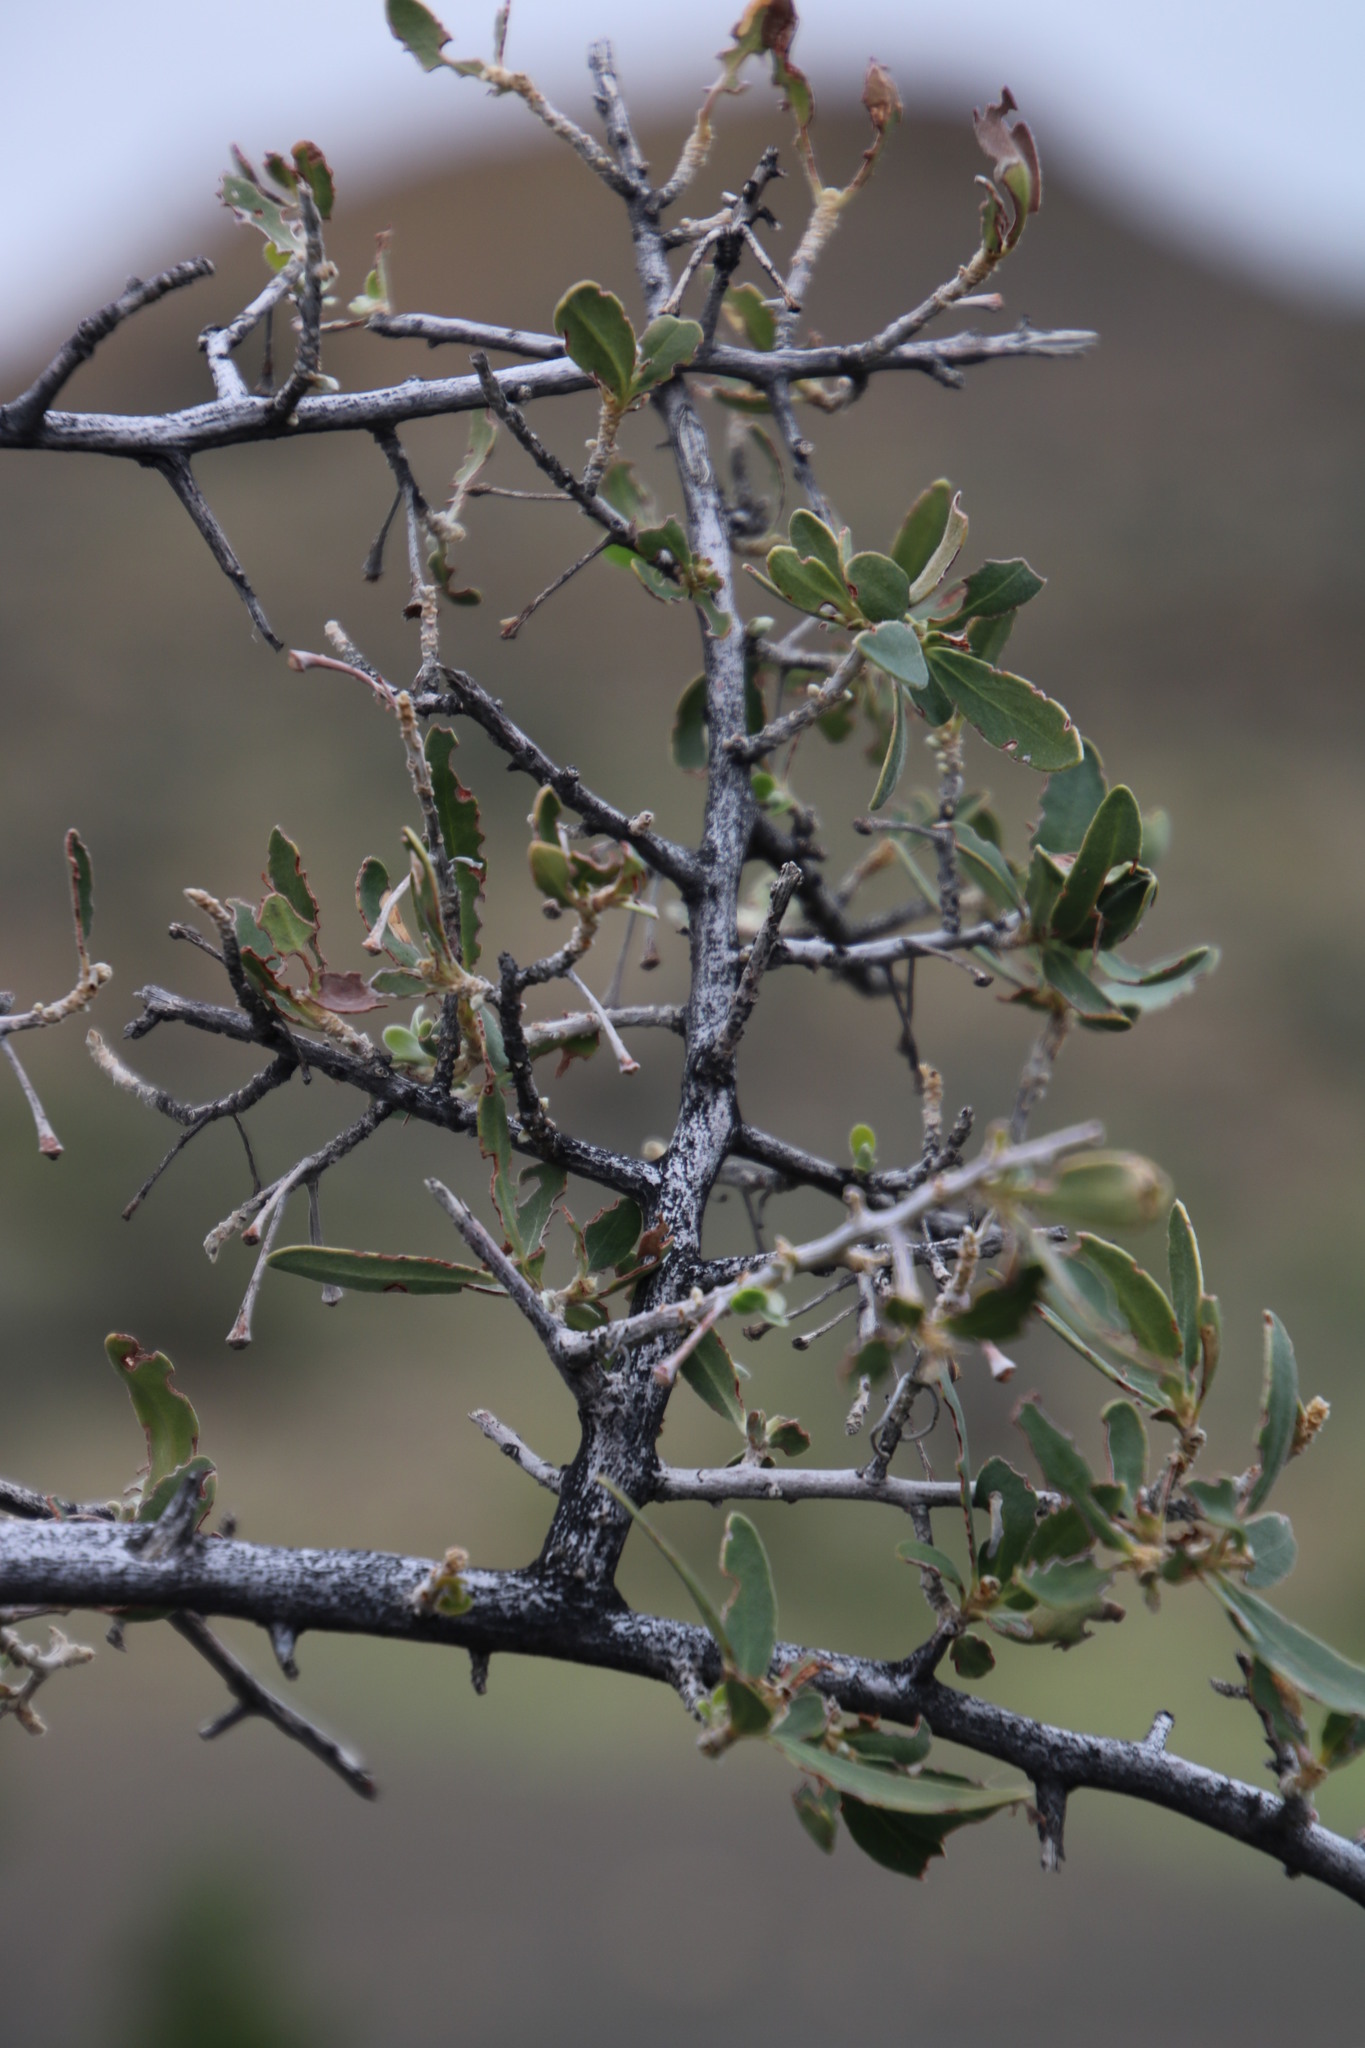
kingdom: Plantae
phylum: Tracheophyta
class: Magnoliopsida
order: Ericales
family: Ebenaceae
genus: Diospyros
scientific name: Diospyros lycioides
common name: Red star apple
